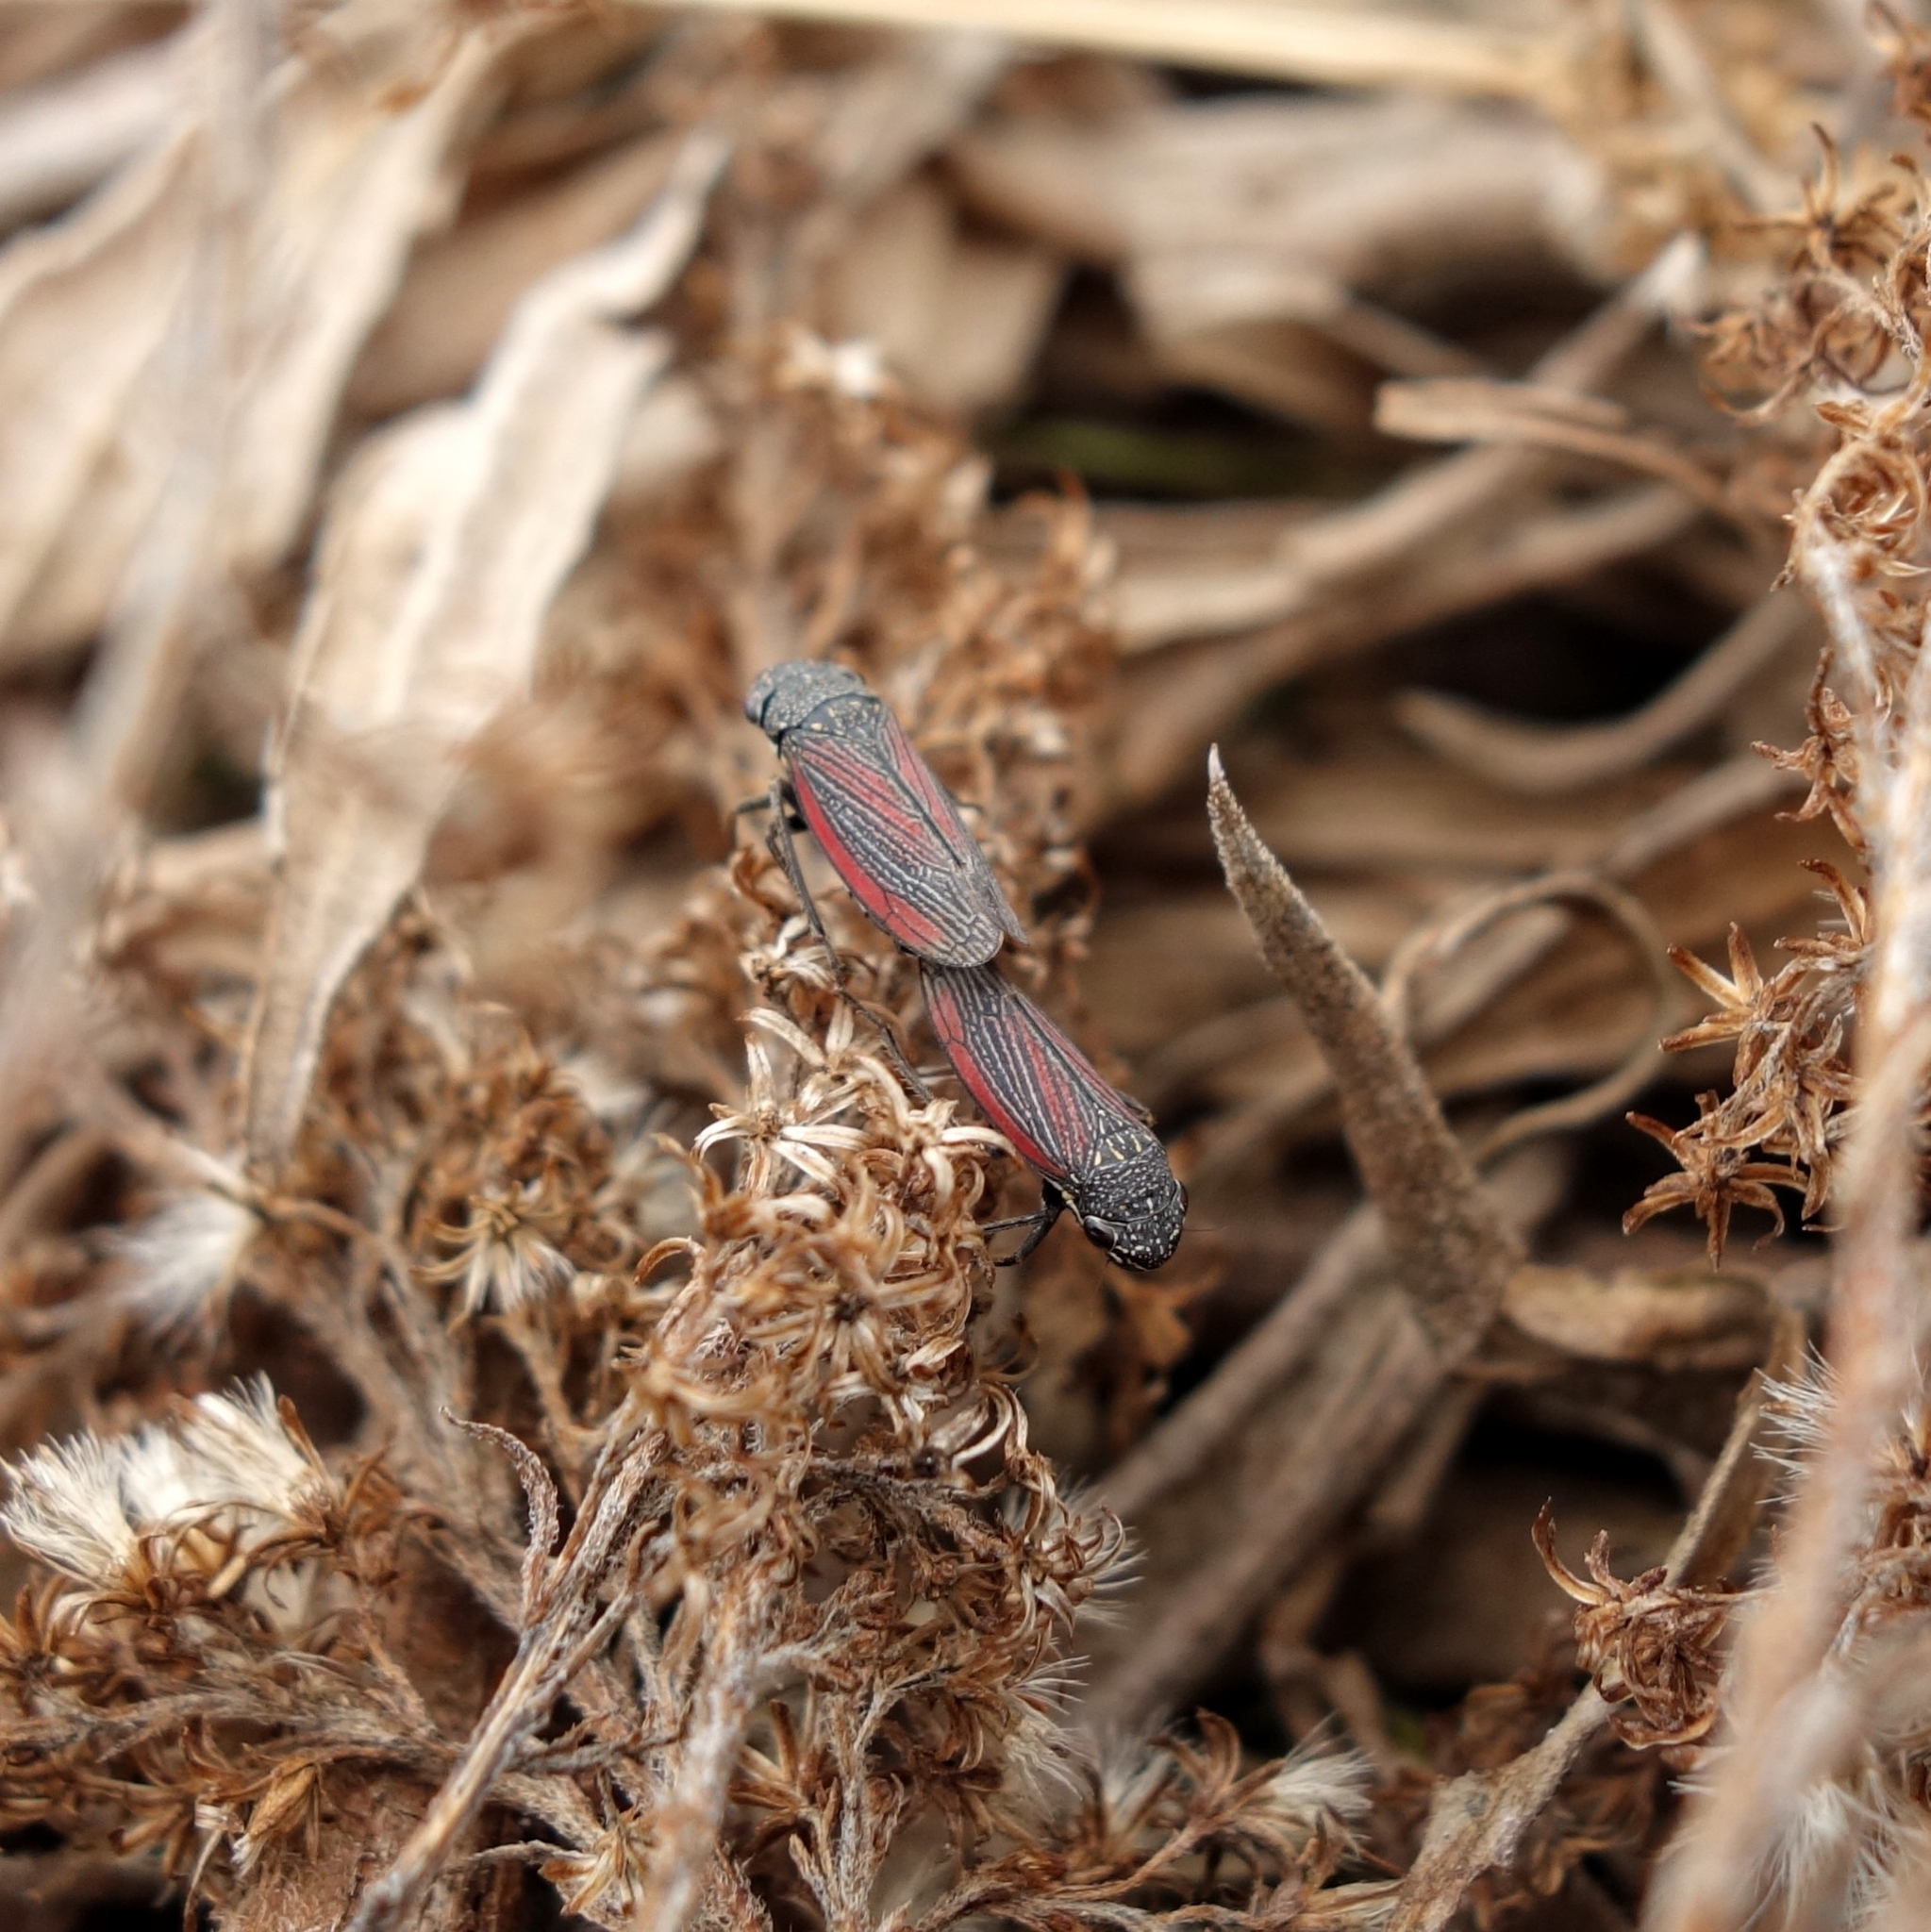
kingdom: Animalia
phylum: Arthropoda
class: Insecta
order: Hemiptera
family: Cicadellidae
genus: Cuerna
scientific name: Cuerna striata
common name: Striped leafhopper
